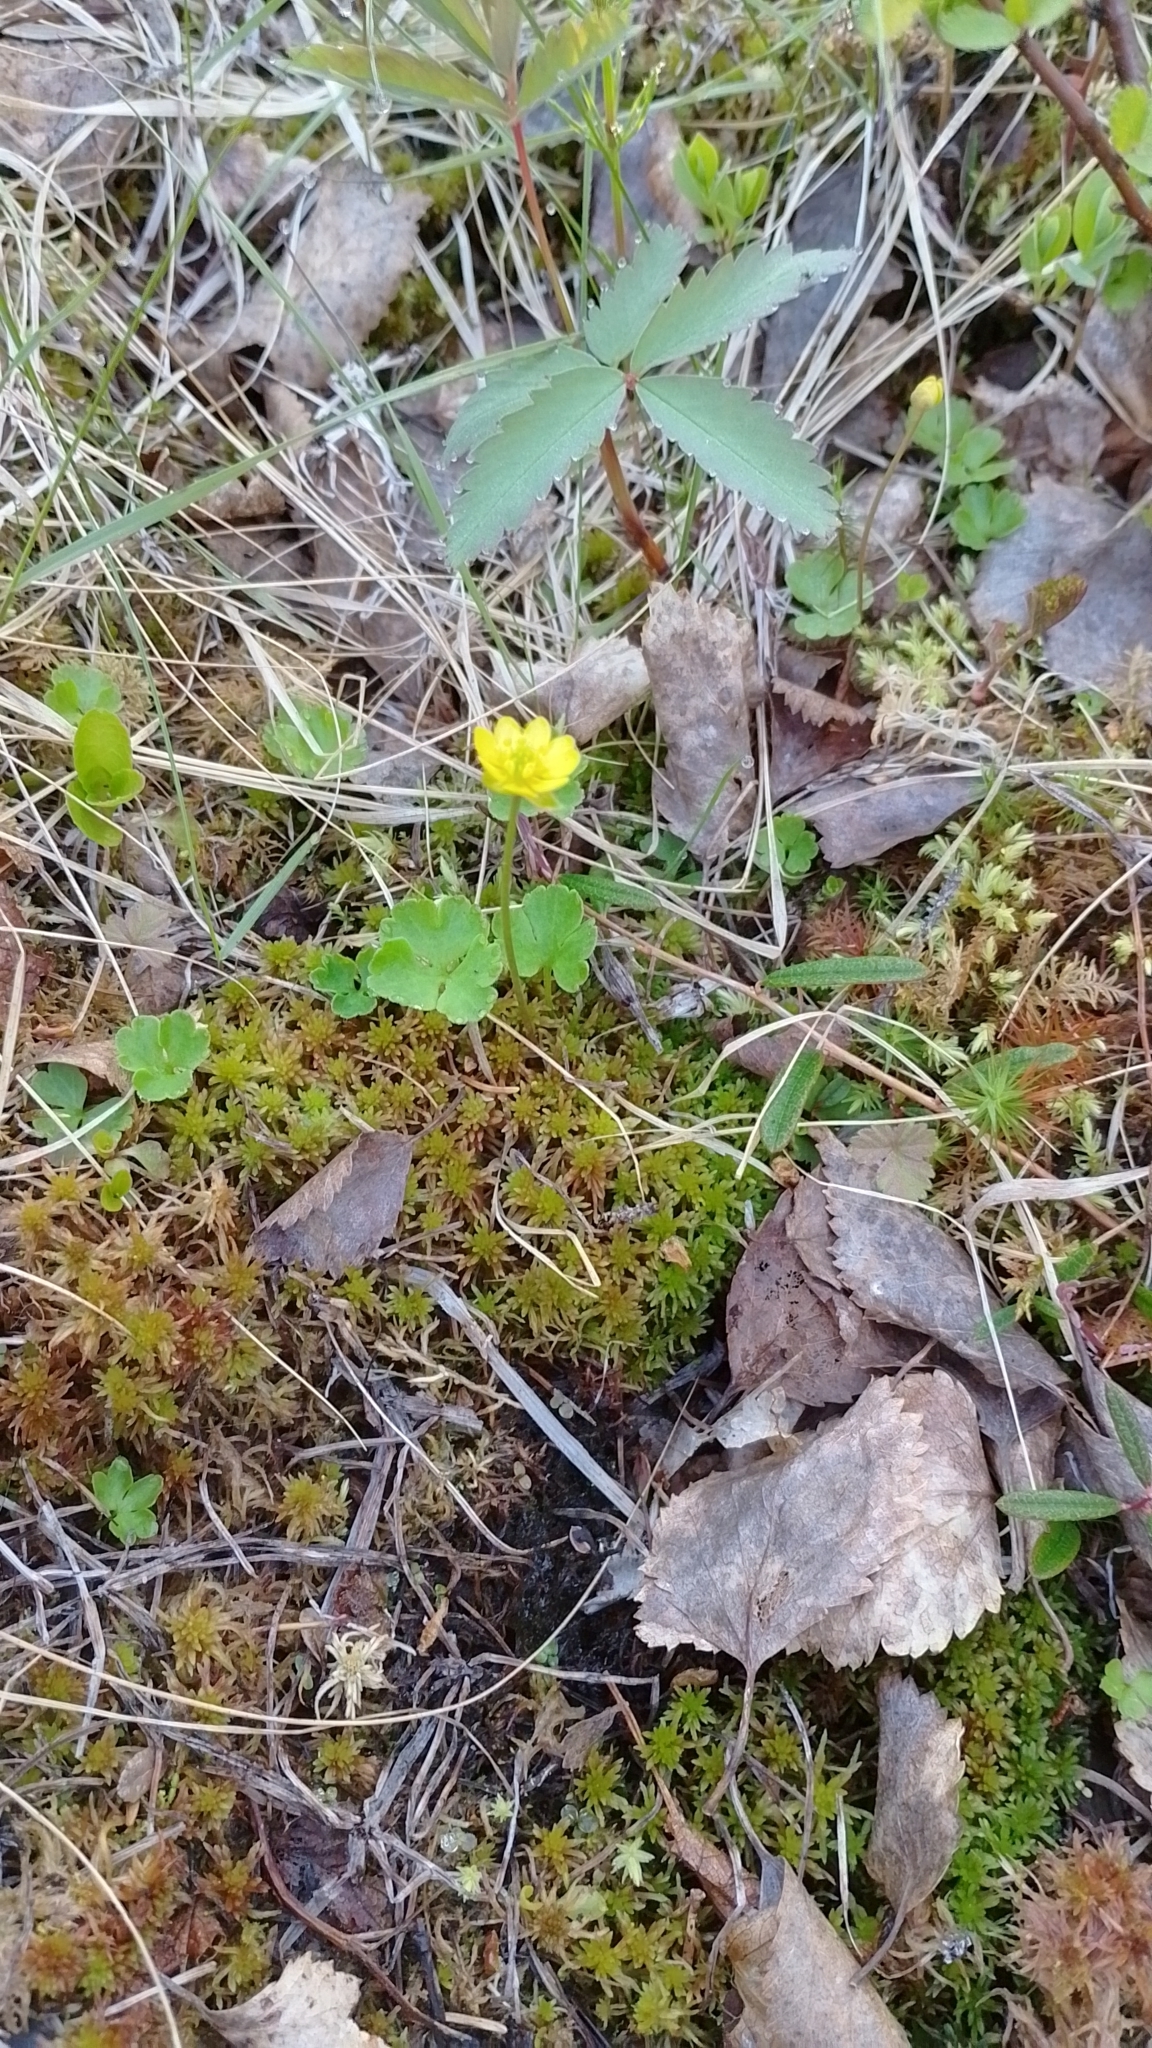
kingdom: Plantae
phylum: Tracheophyta
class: Magnoliopsida
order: Ranunculales
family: Ranunculaceae
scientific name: Ranunculaceae
